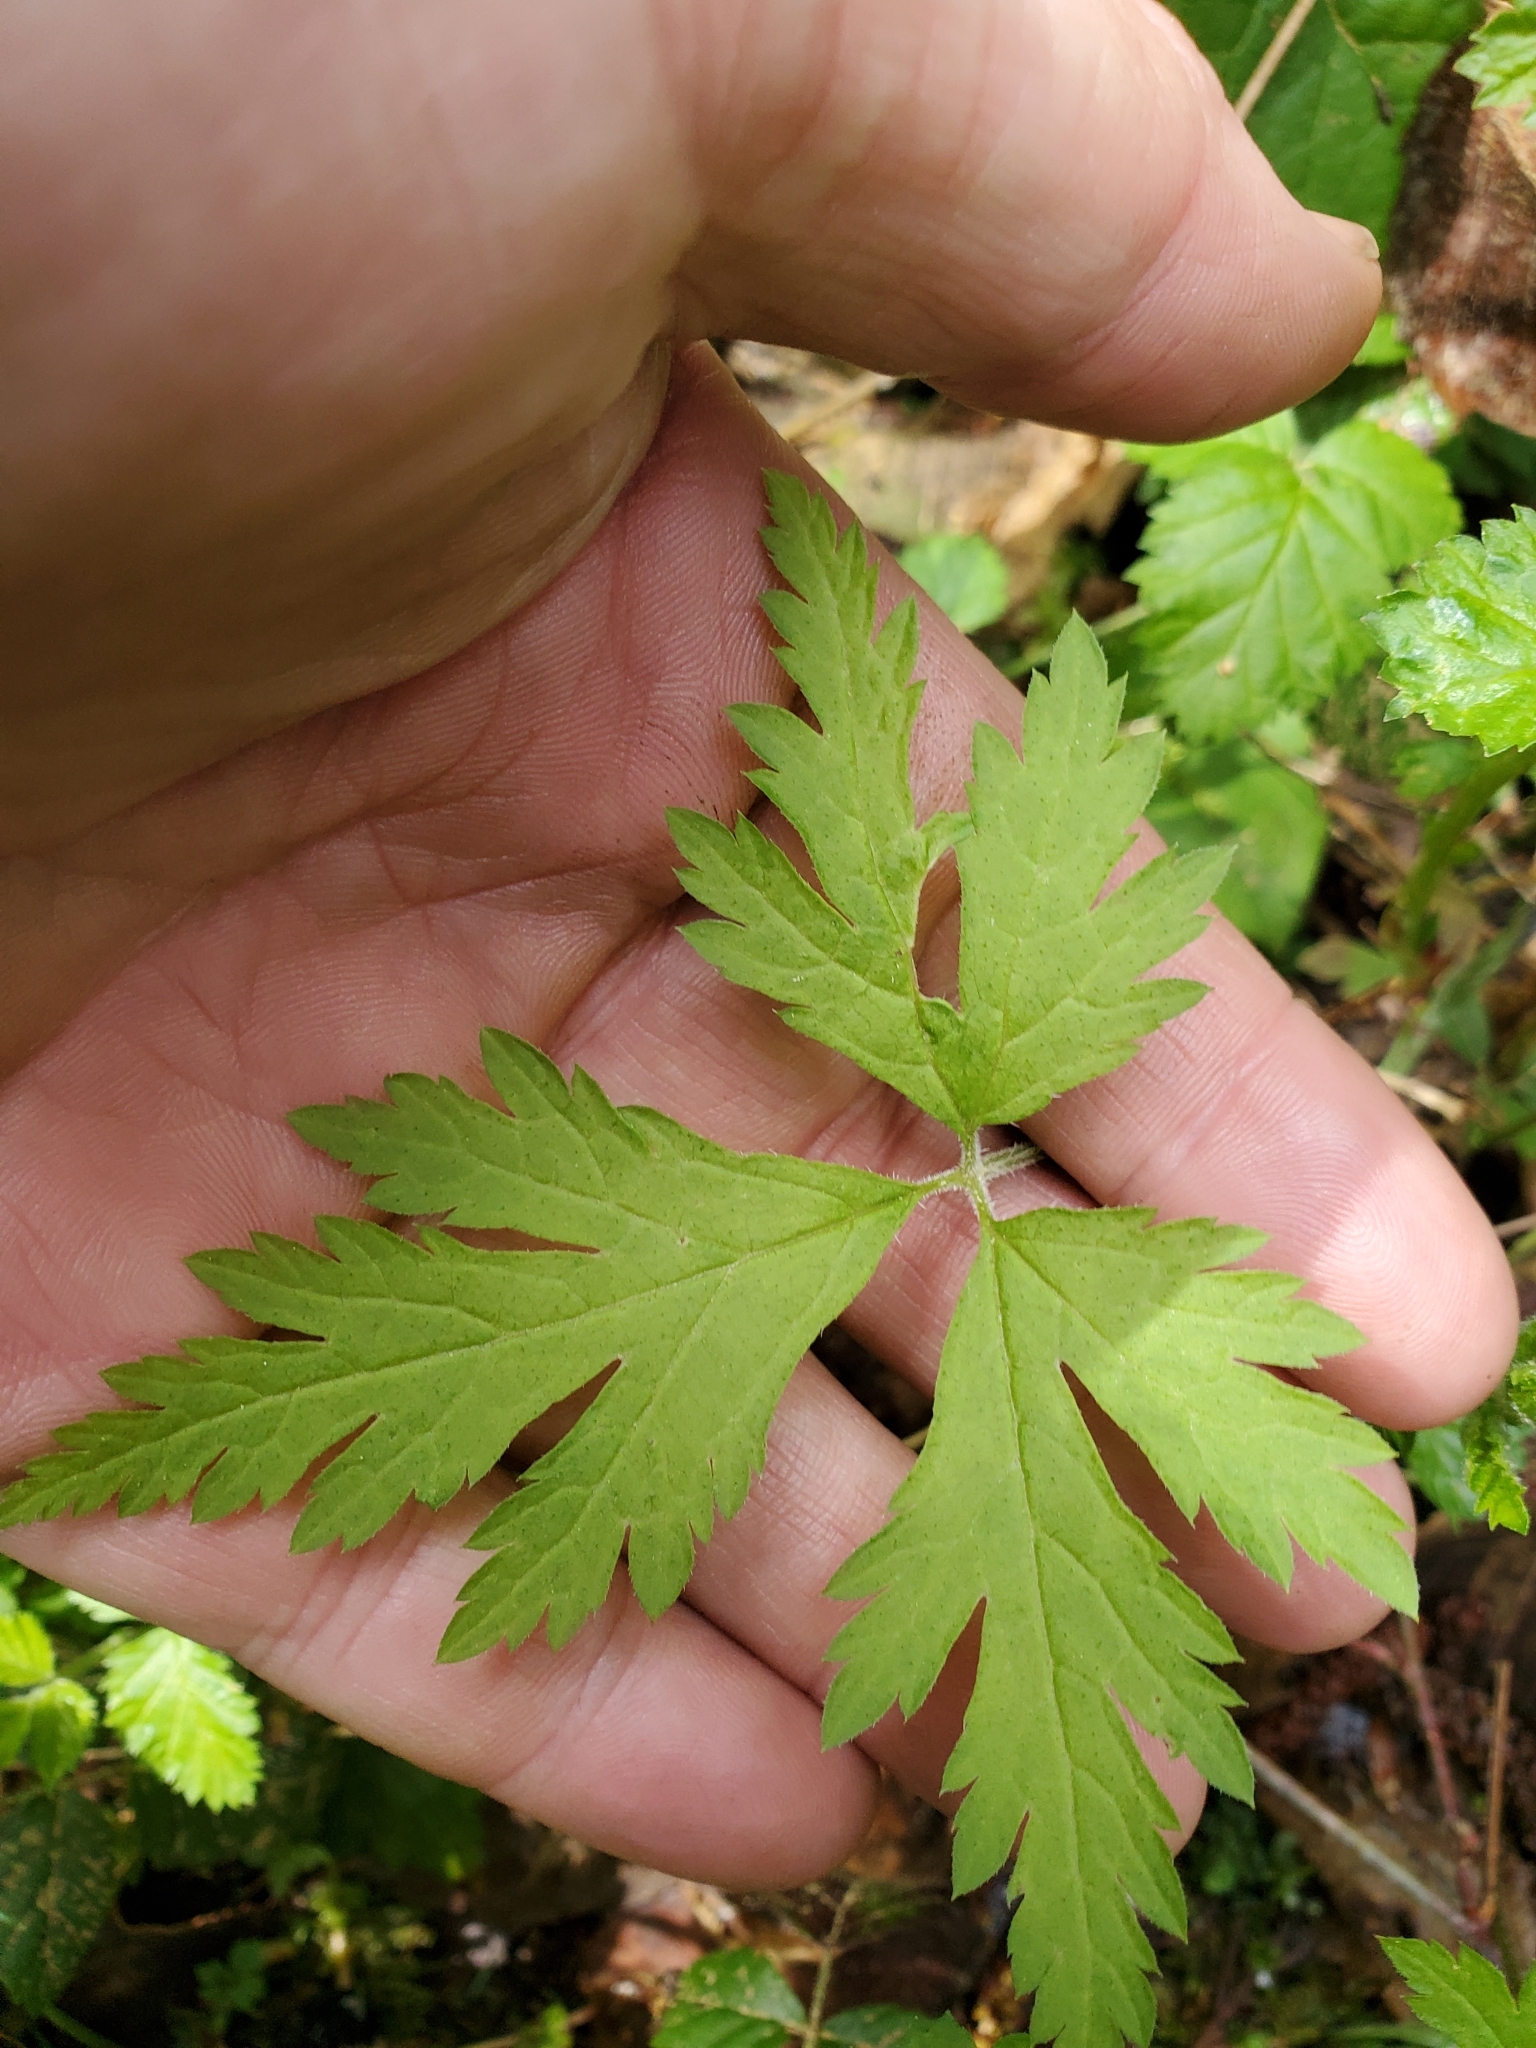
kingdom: Plantae
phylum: Tracheophyta
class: Magnoliopsida
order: Saxifragales
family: Saxifragaceae
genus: Tiarella
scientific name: Tiarella trifoliata
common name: Sugar-scoop
